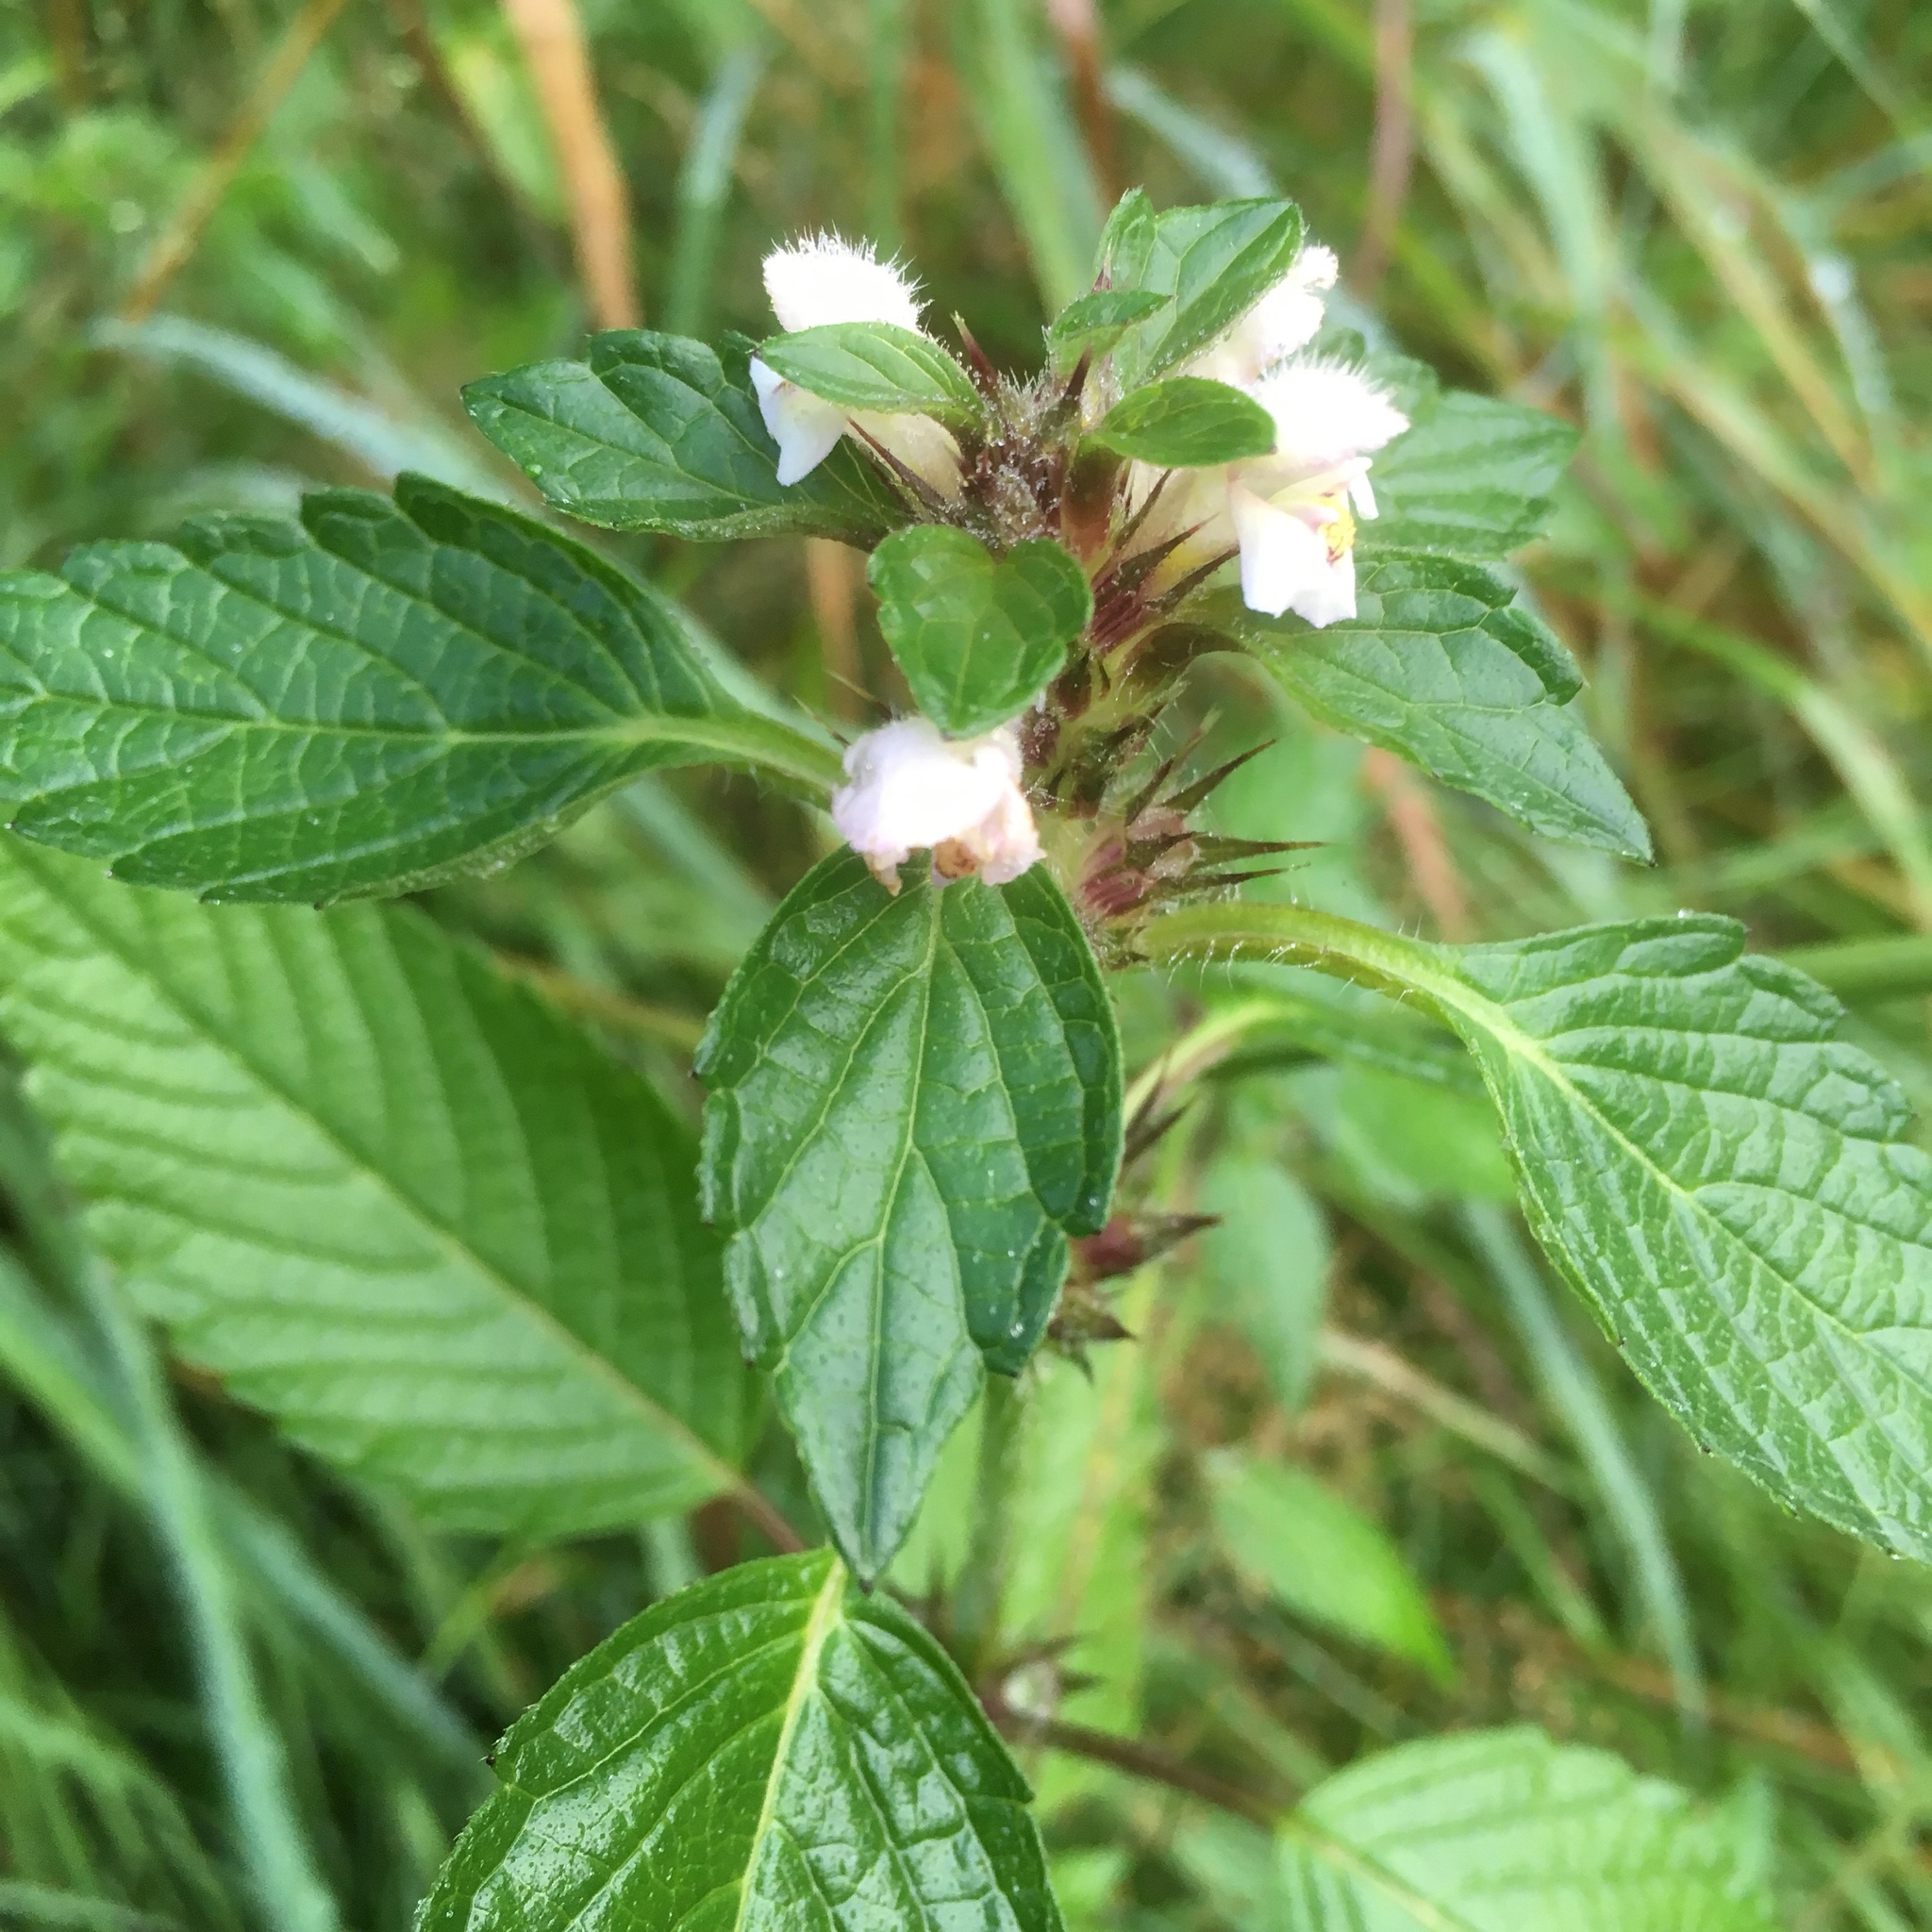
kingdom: Plantae
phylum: Tracheophyta
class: Magnoliopsida
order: Lamiales
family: Lamiaceae
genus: Galeopsis
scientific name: Galeopsis bifida
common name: Bifid hemp-nettle
